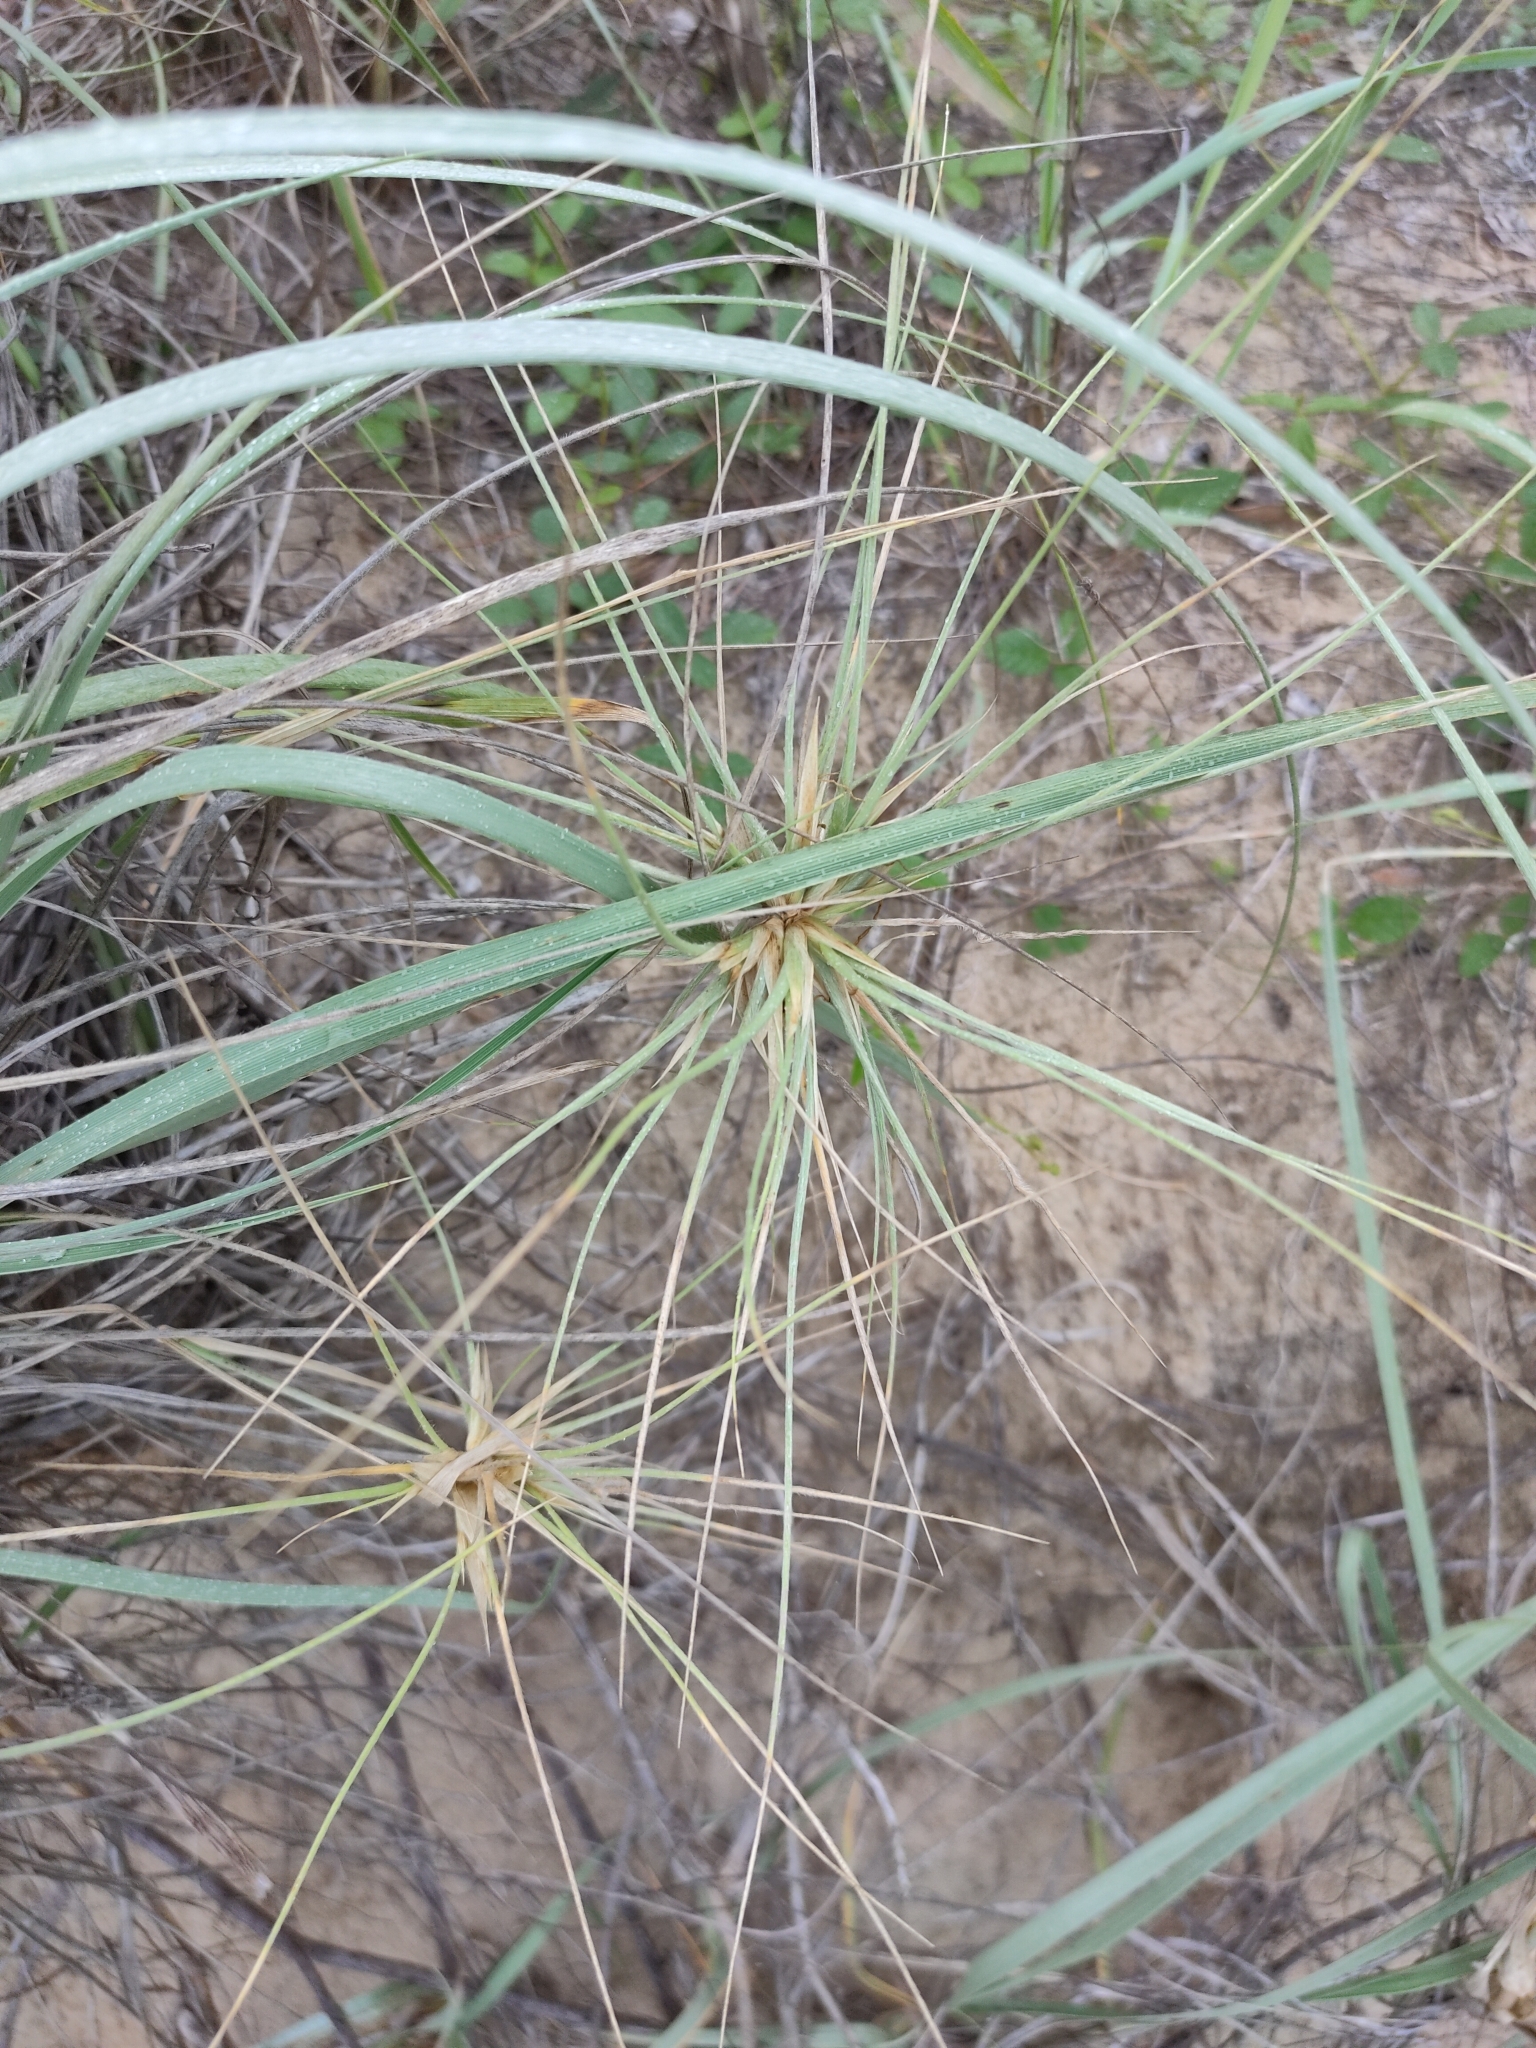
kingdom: Plantae
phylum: Tracheophyta
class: Liliopsida
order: Poales
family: Poaceae
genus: Spinifex
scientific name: Spinifex sericeus
